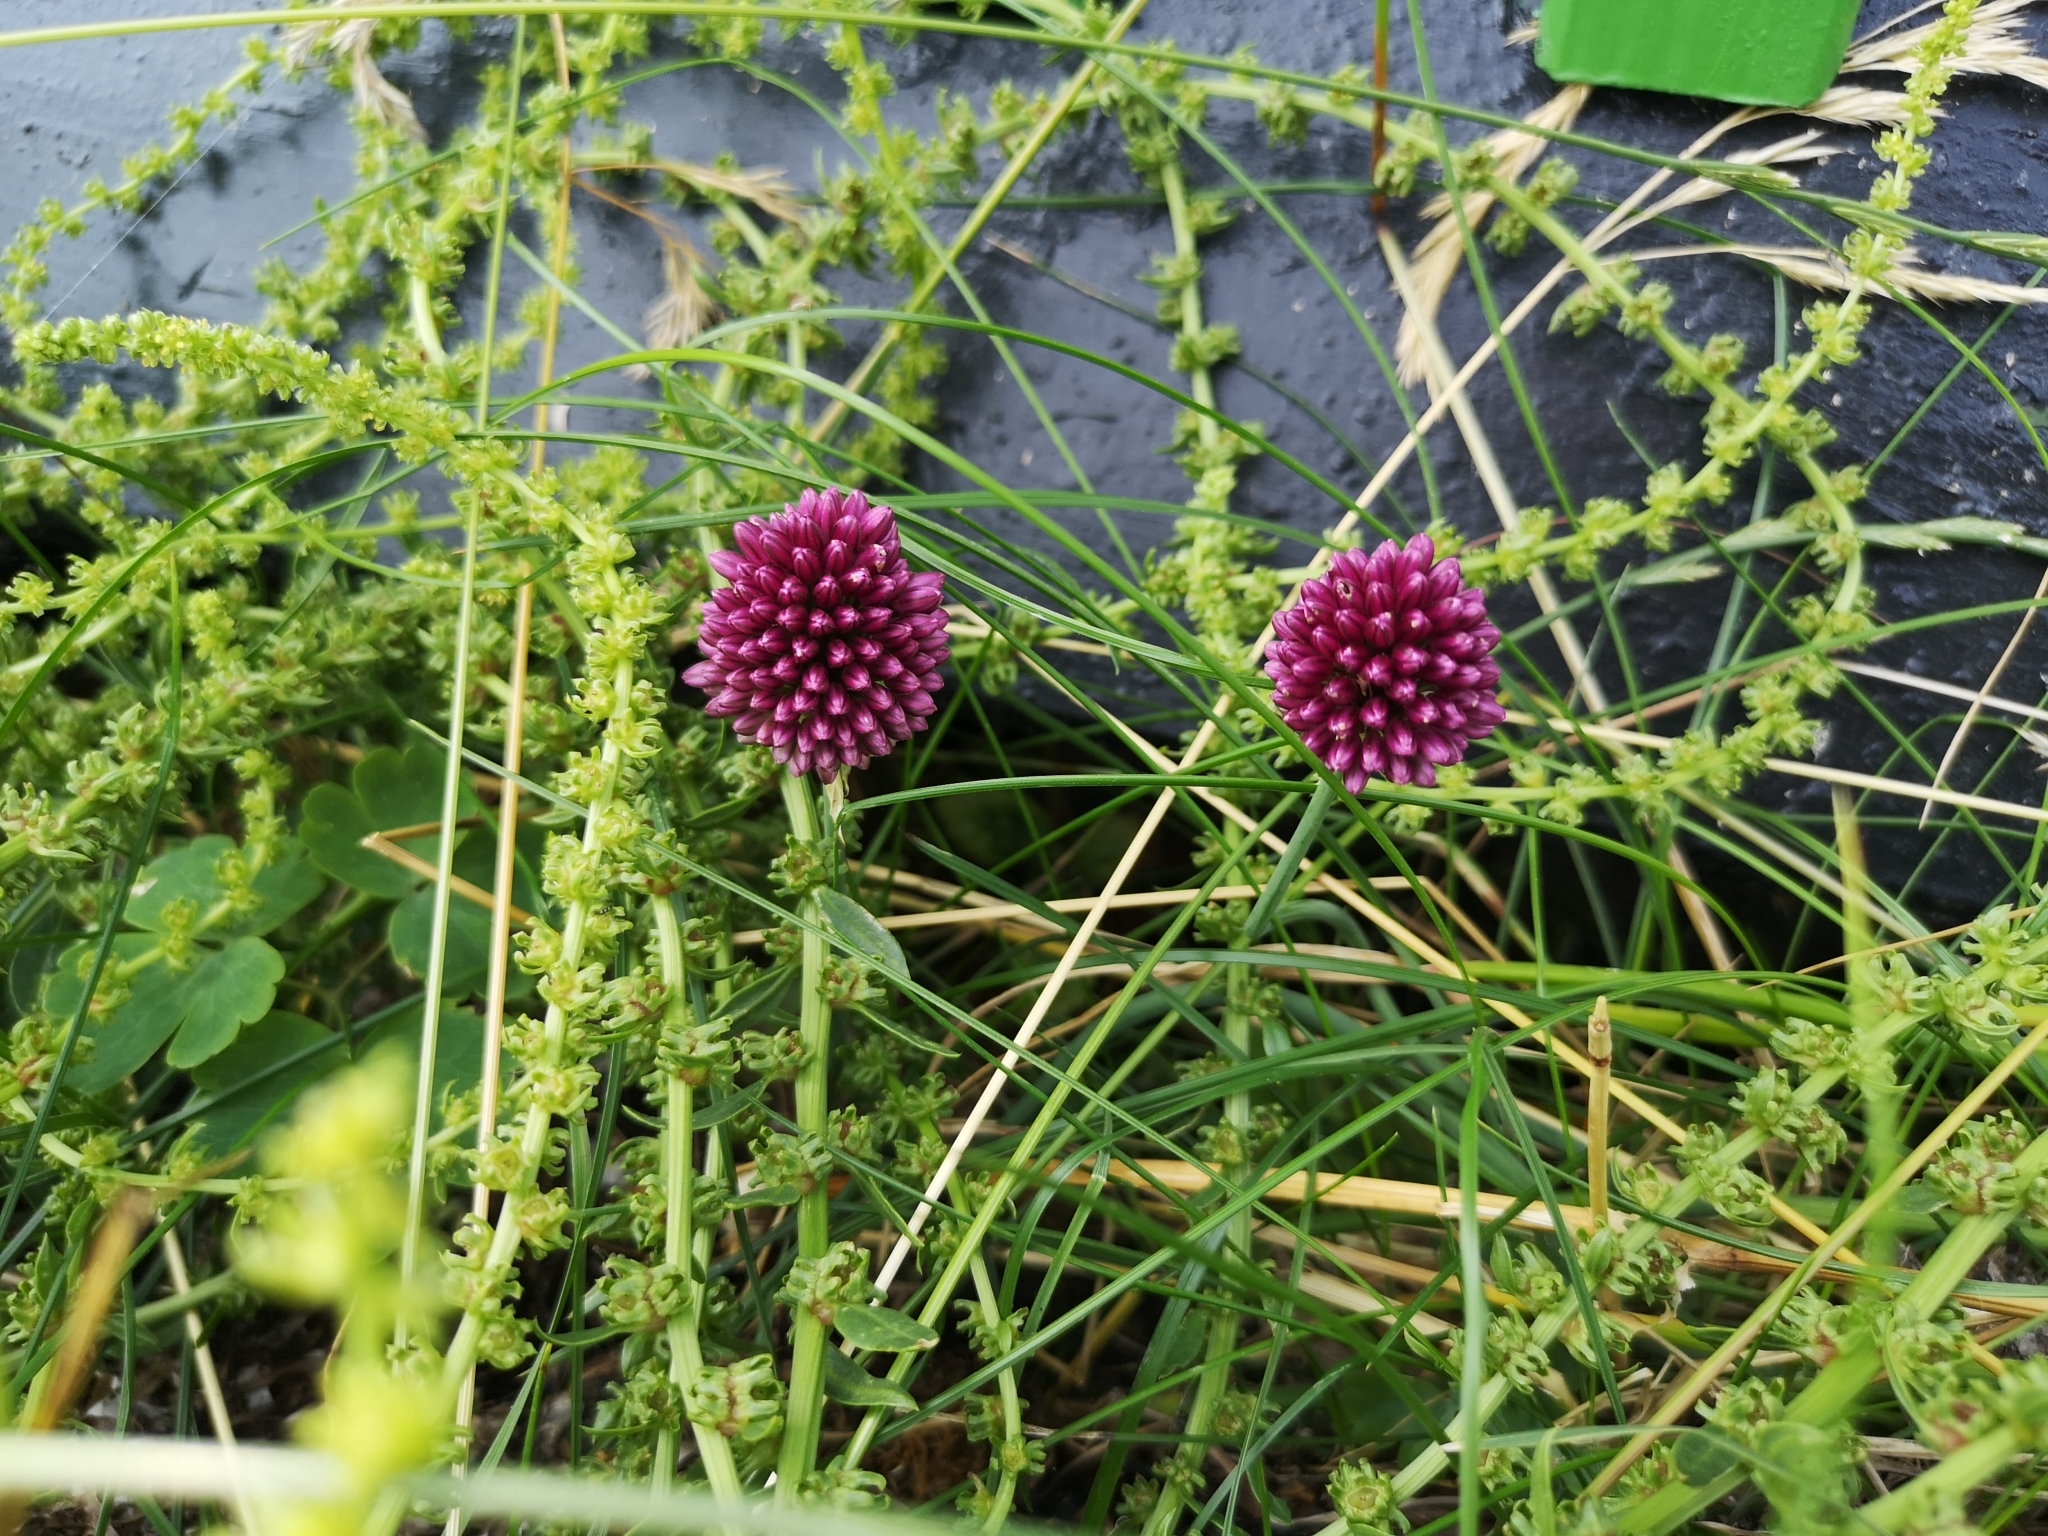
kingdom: Plantae
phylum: Tracheophyta
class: Liliopsida
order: Asparagales
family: Amaryllidaceae
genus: Allium
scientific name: Allium sphaerocephalon
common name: Round-headed leek
